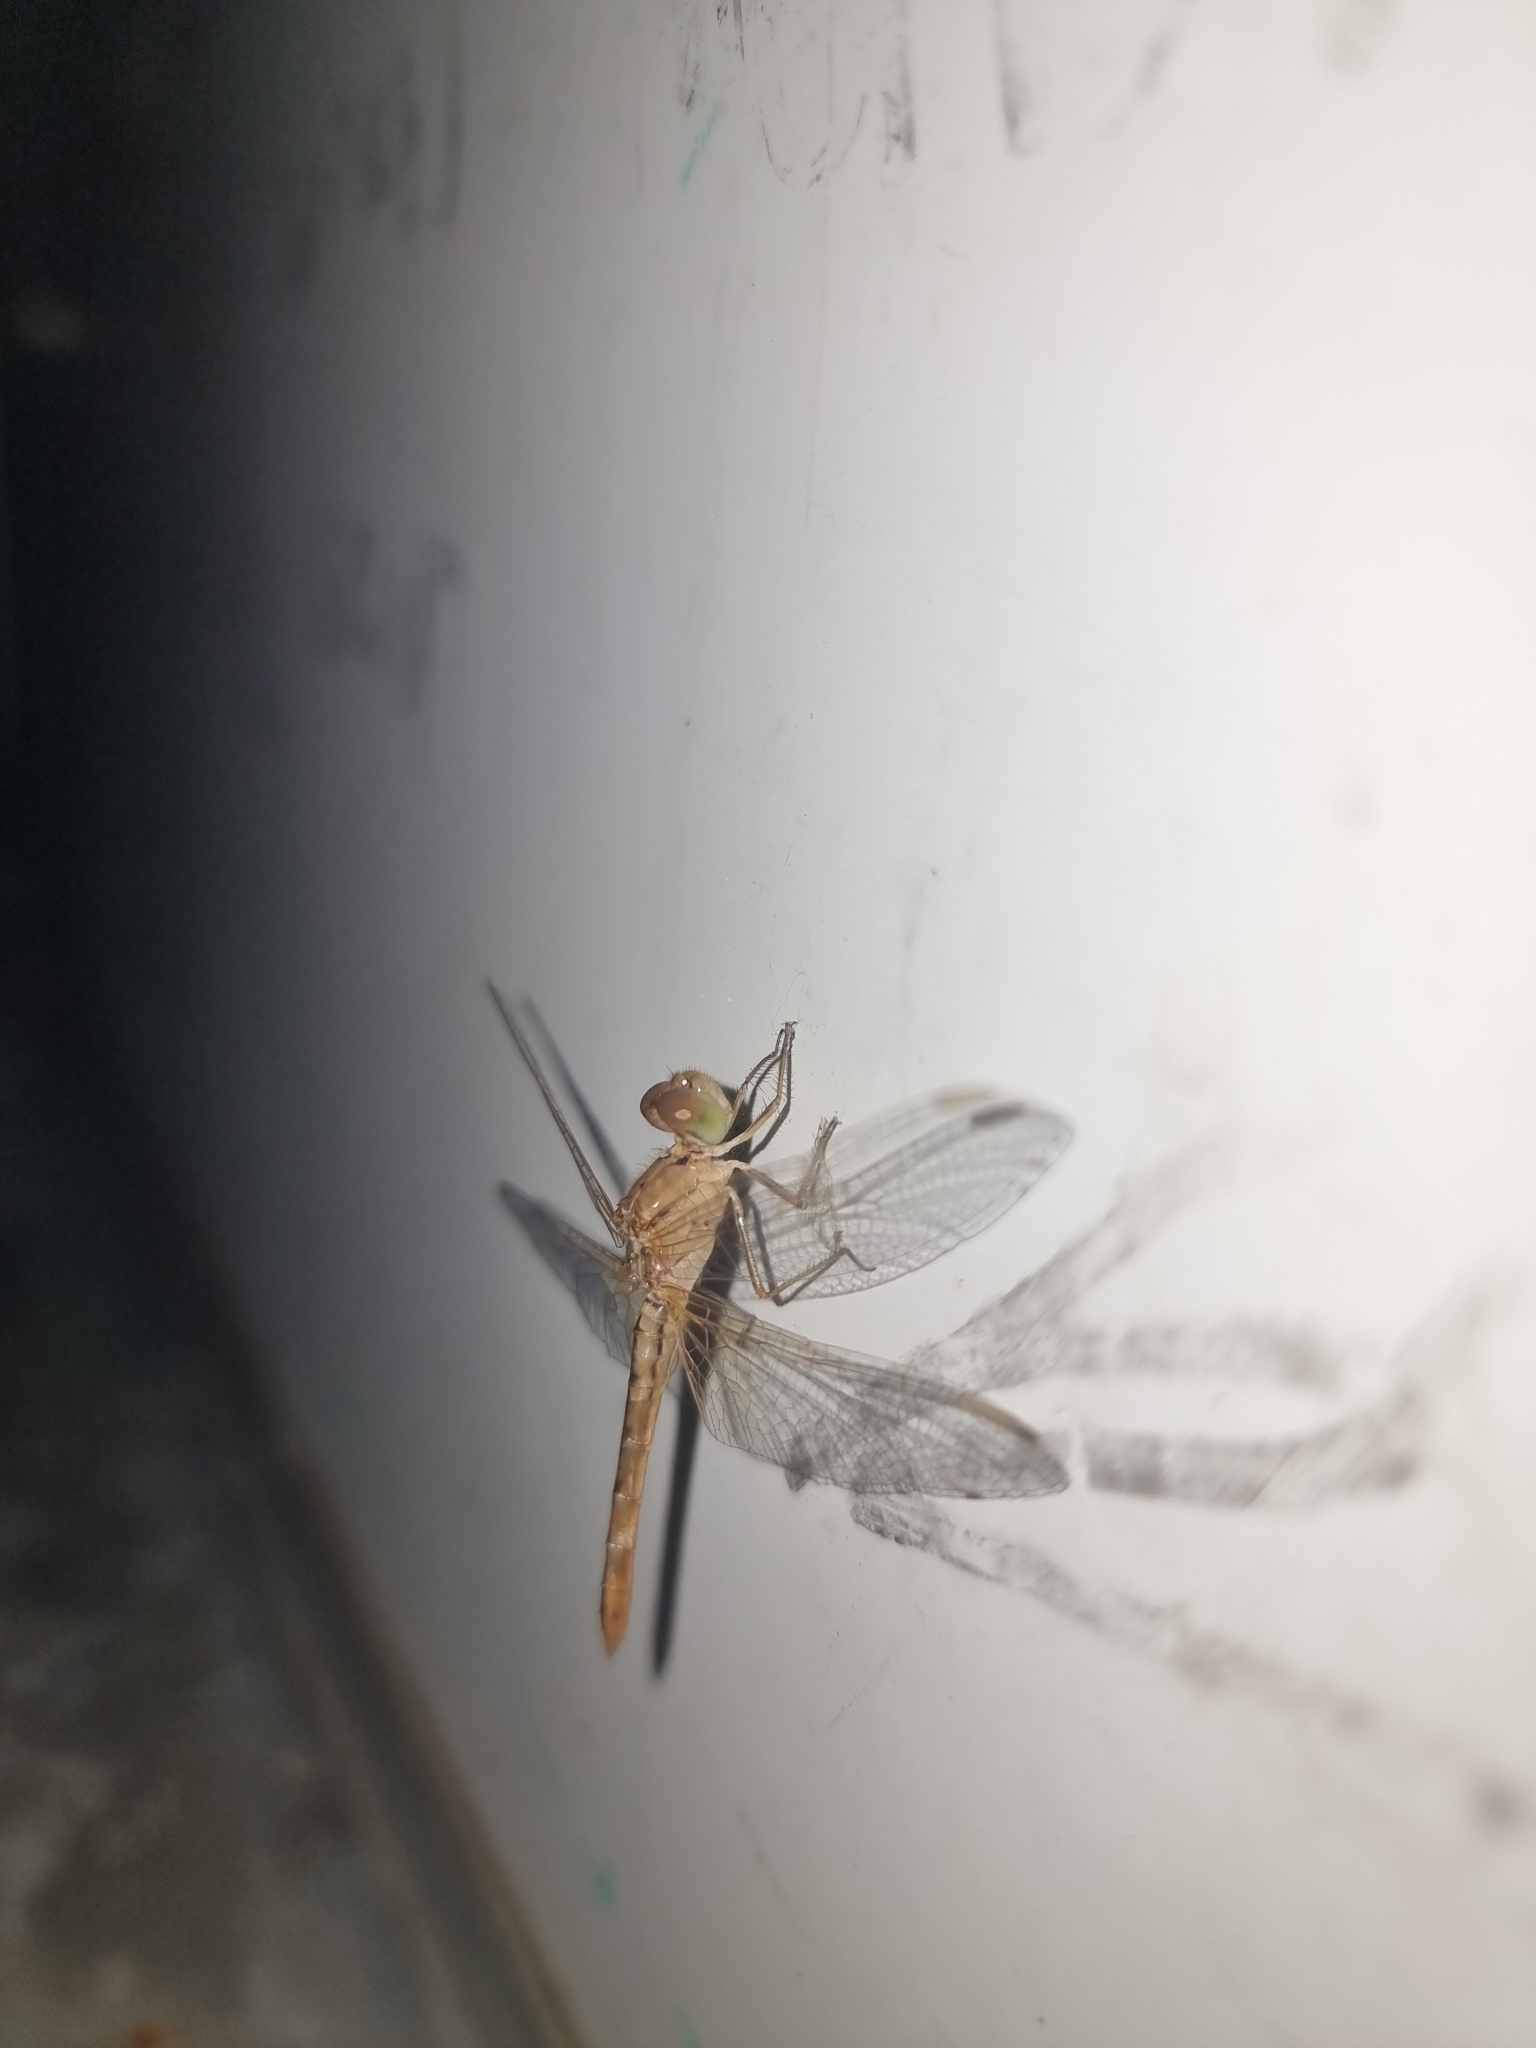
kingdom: Animalia
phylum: Arthropoda
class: Insecta
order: Odonata
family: Libellulidae
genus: Diplacodes
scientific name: Diplacodes haematodes
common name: Scarlet percher
